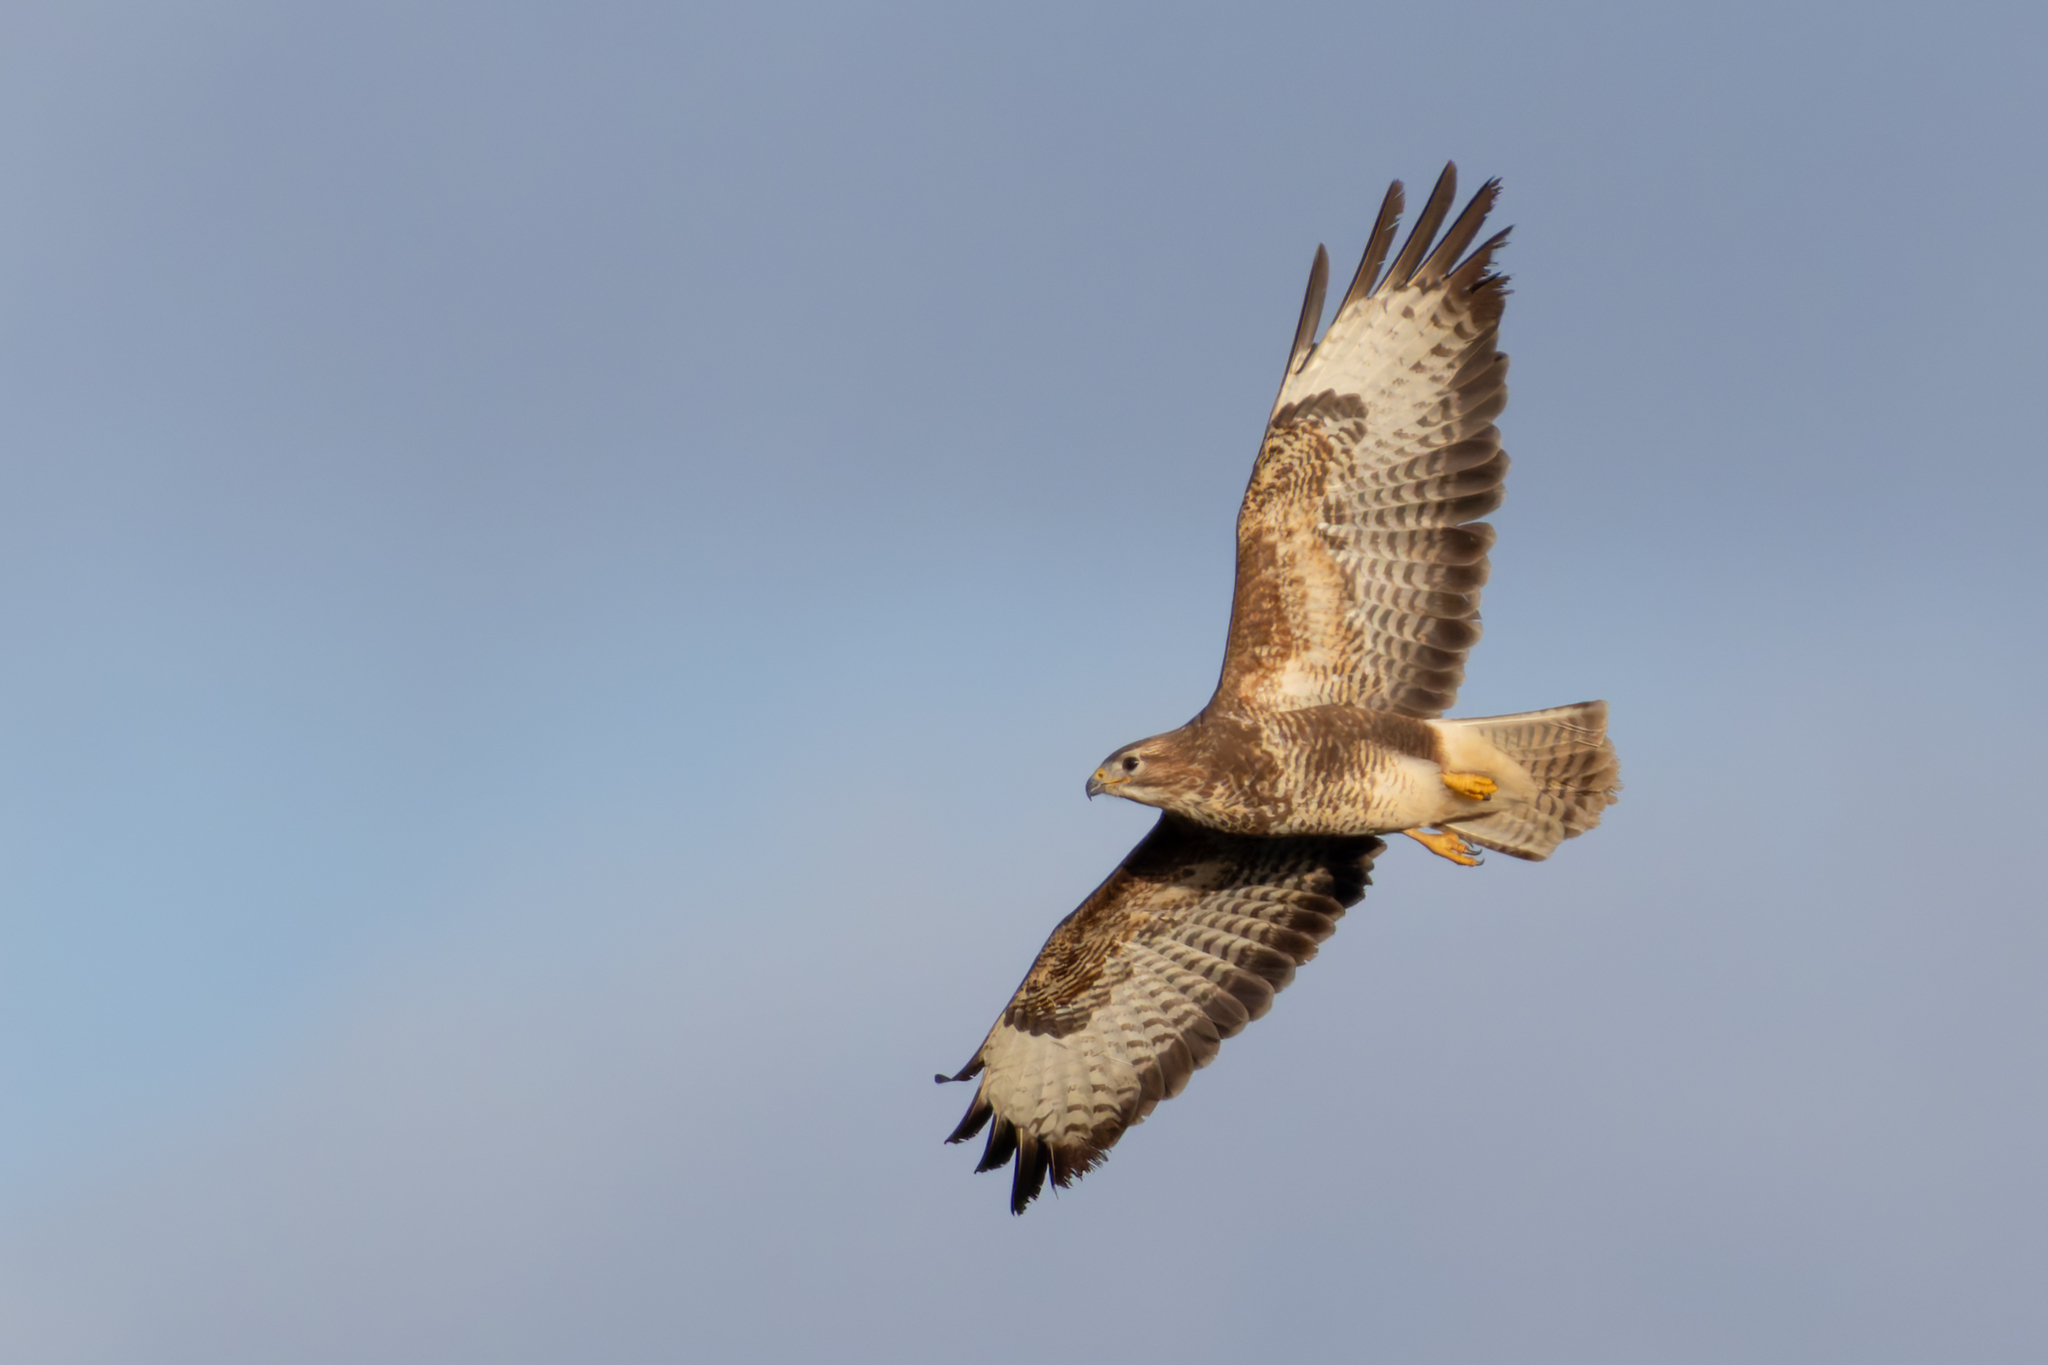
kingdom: Animalia
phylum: Chordata
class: Aves
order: Accipitriformes
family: Accipitridae
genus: Buteo
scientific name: Buteo buteo
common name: Common buzzard
